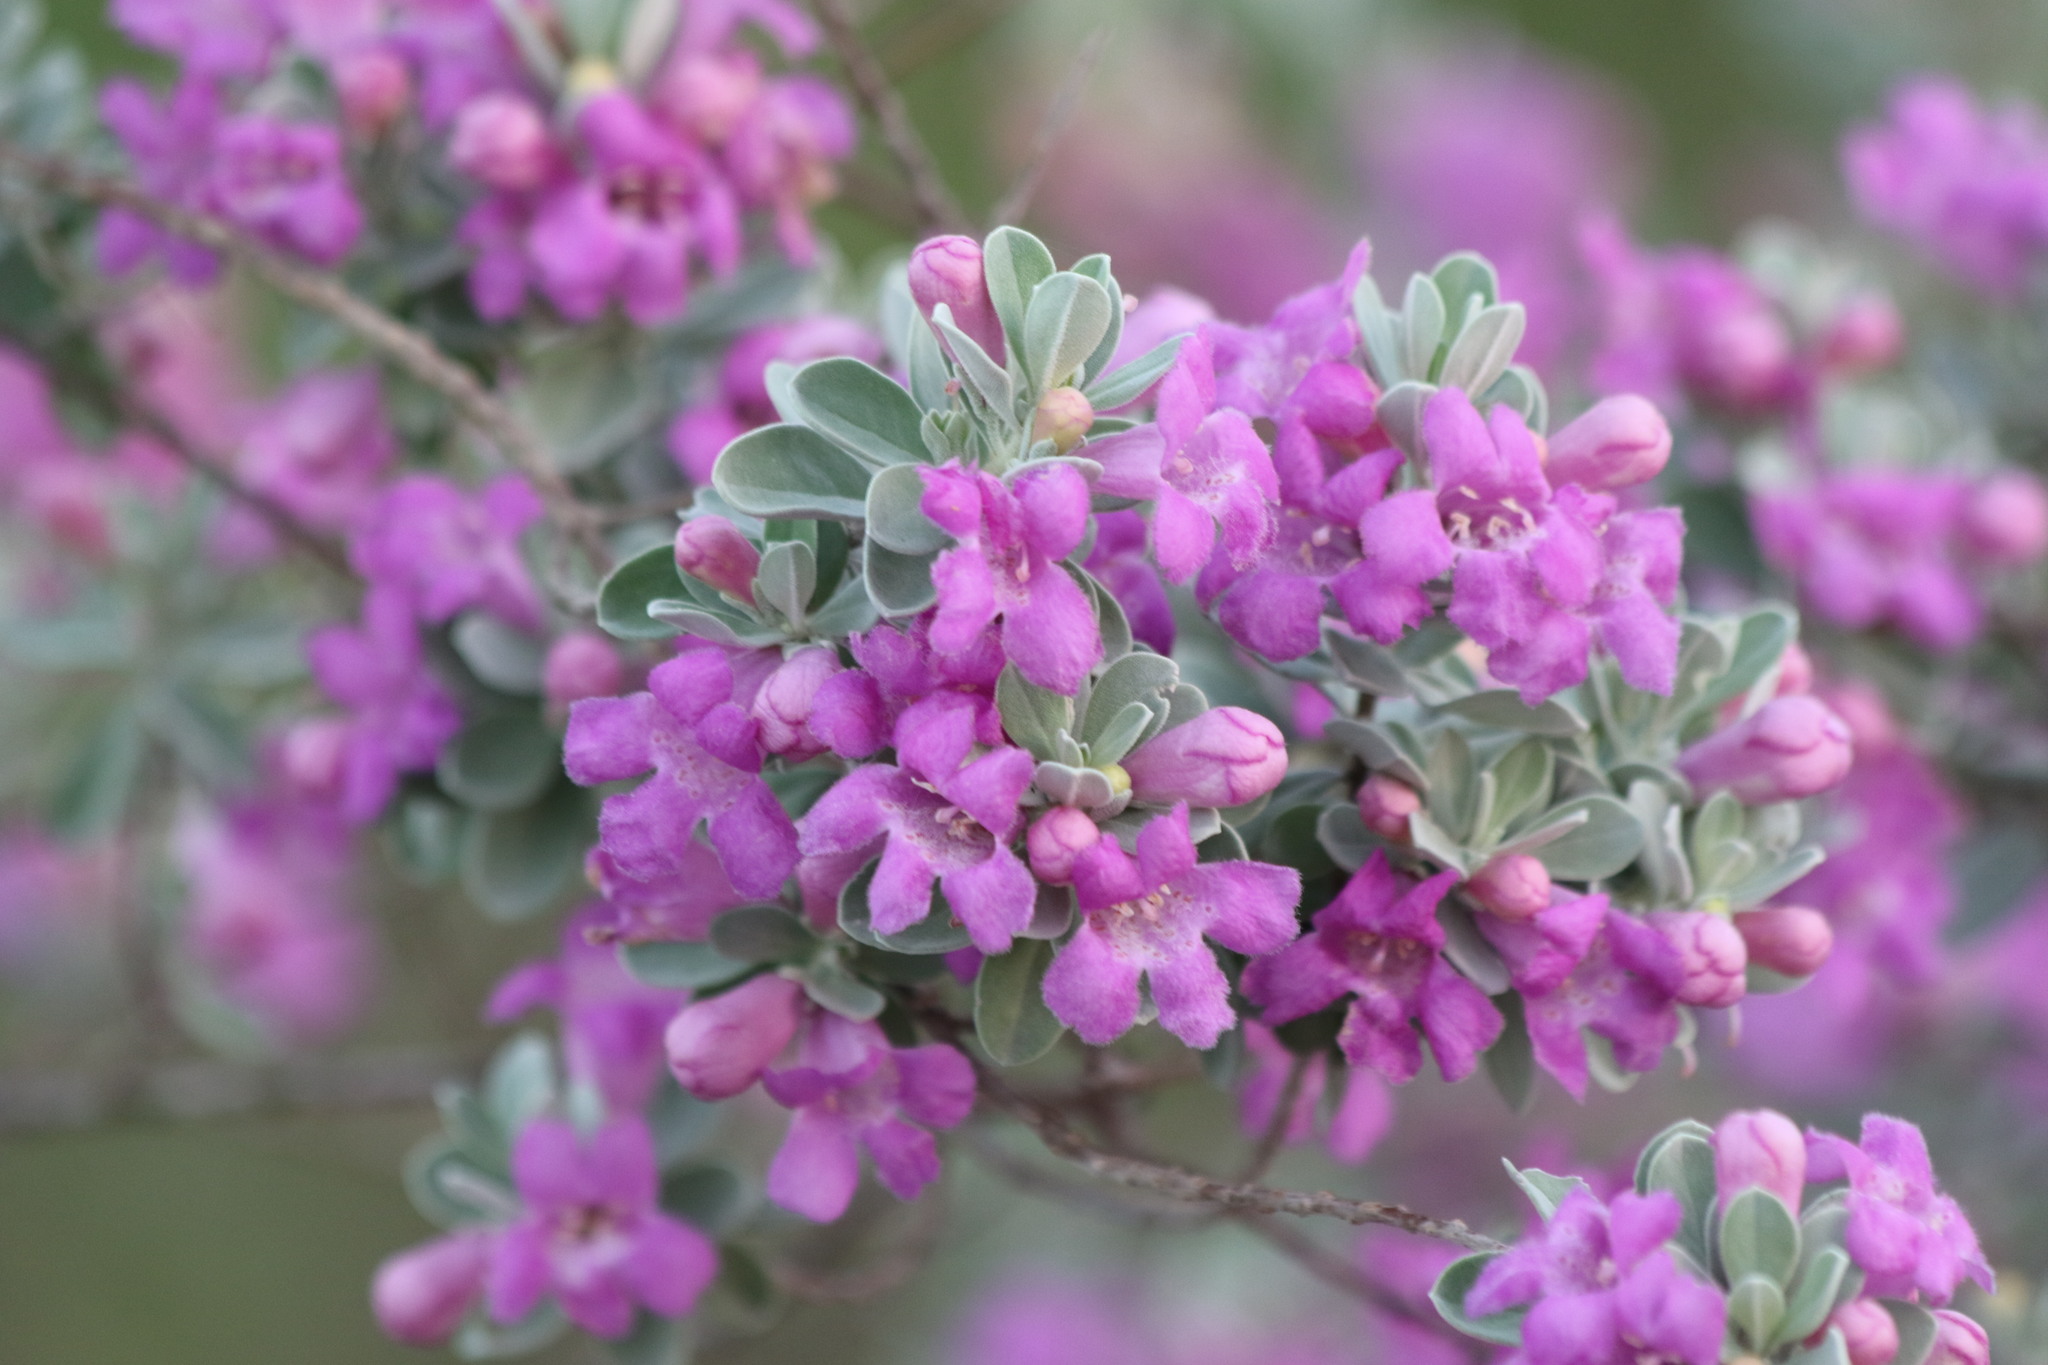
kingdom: Plantae
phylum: Tracheophyta
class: Magnoliopsida
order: Lamiales
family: Scrophulariaceae
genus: Leucophyllum
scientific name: Leucophyllum frutescens
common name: Texas silverleaf
